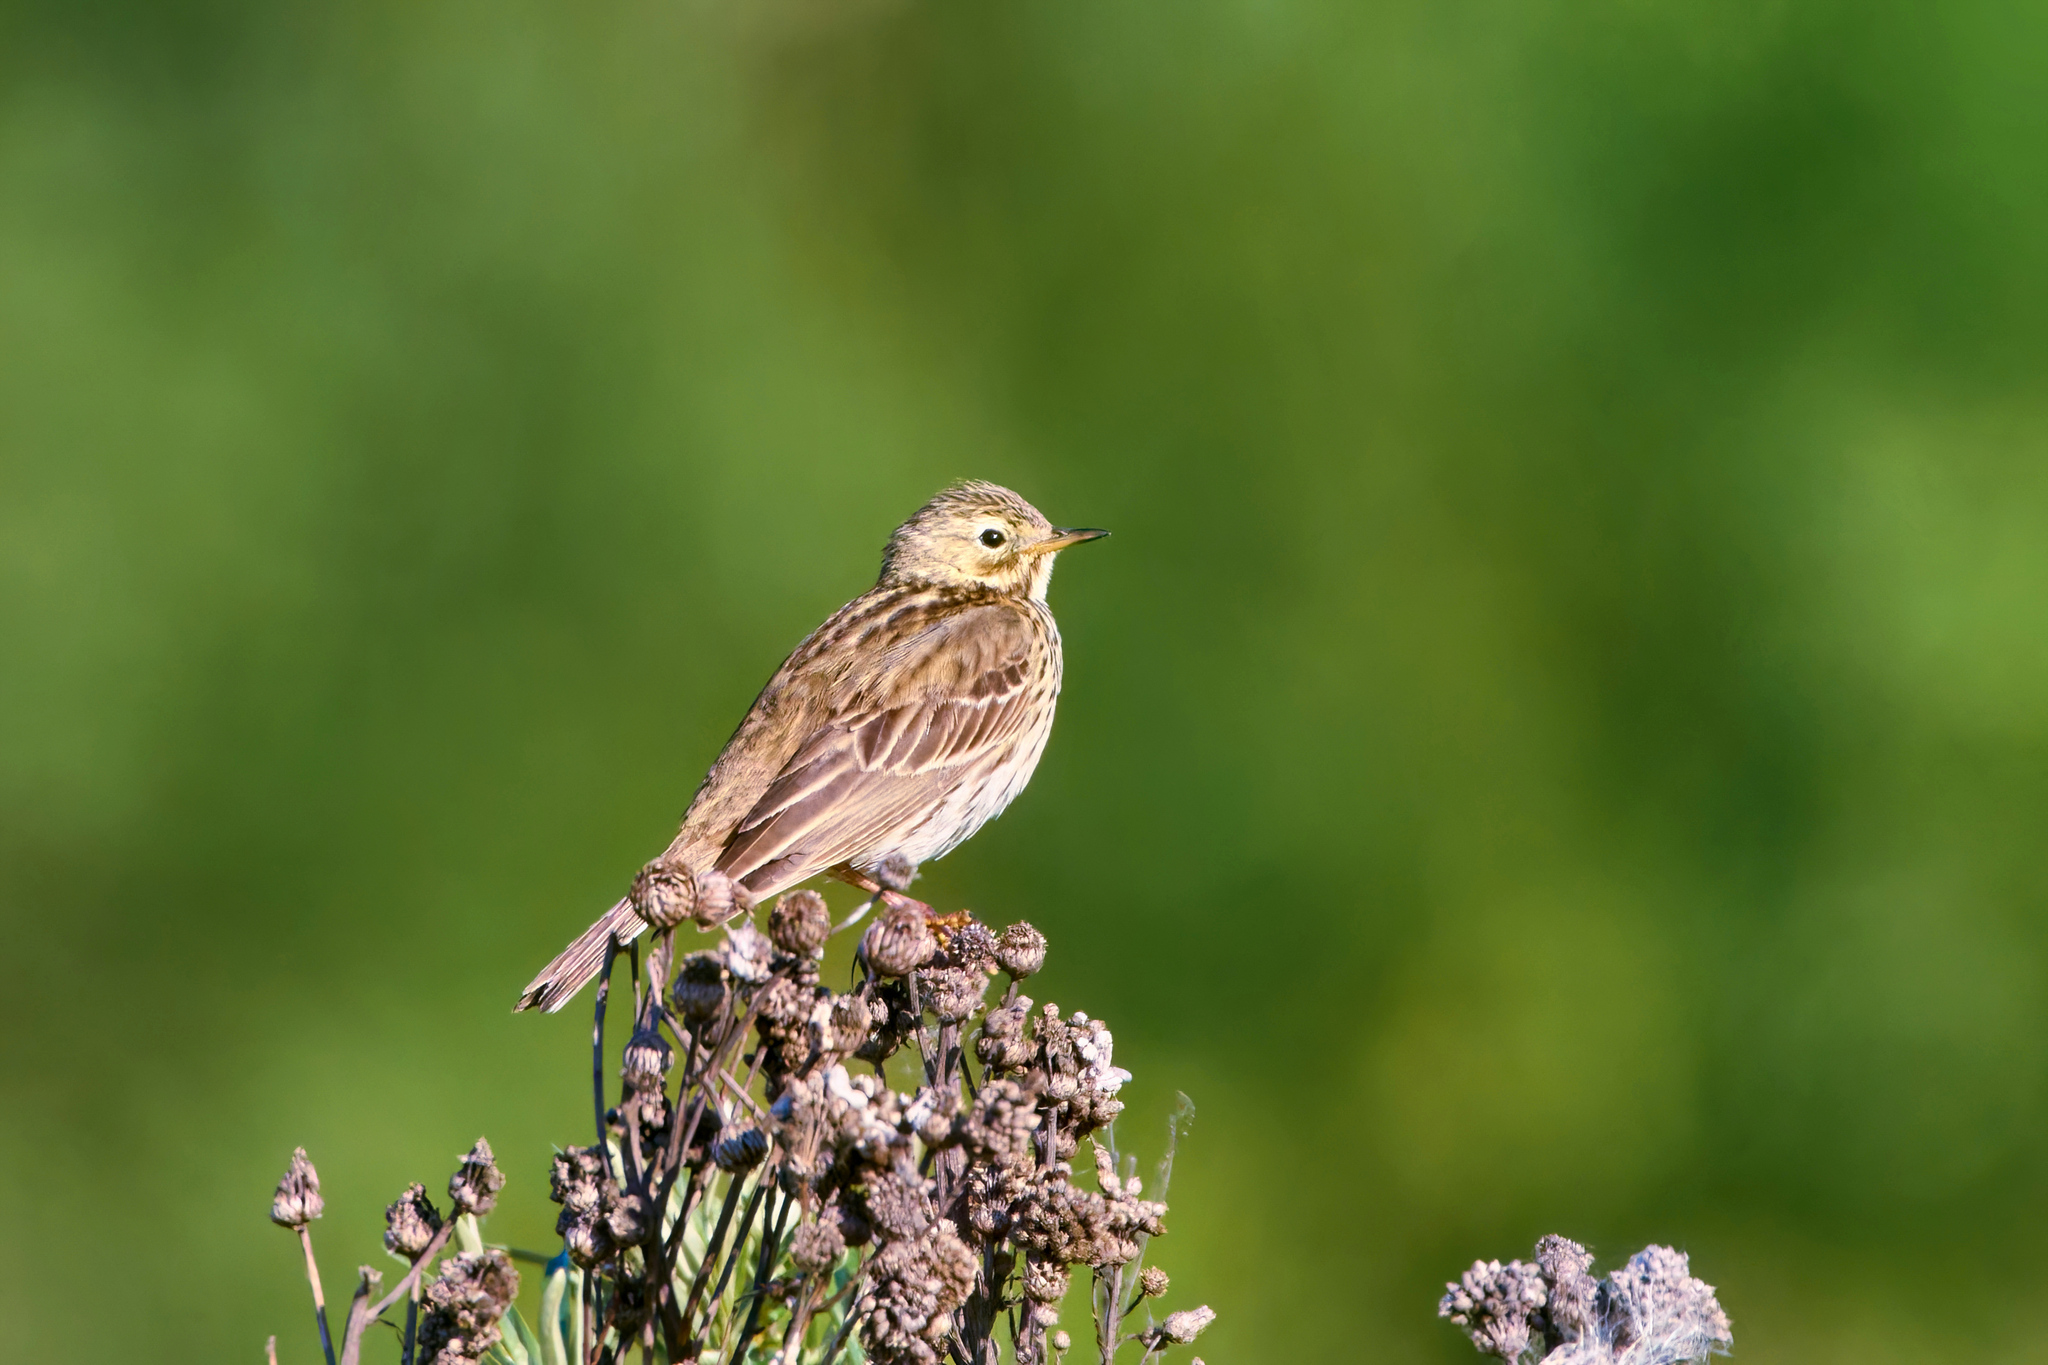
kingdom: Animalia
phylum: Chordata
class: Aves
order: Passeriformes
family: Motacillidae
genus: Anthus
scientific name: Anthus pratensis
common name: Meadow pipit
